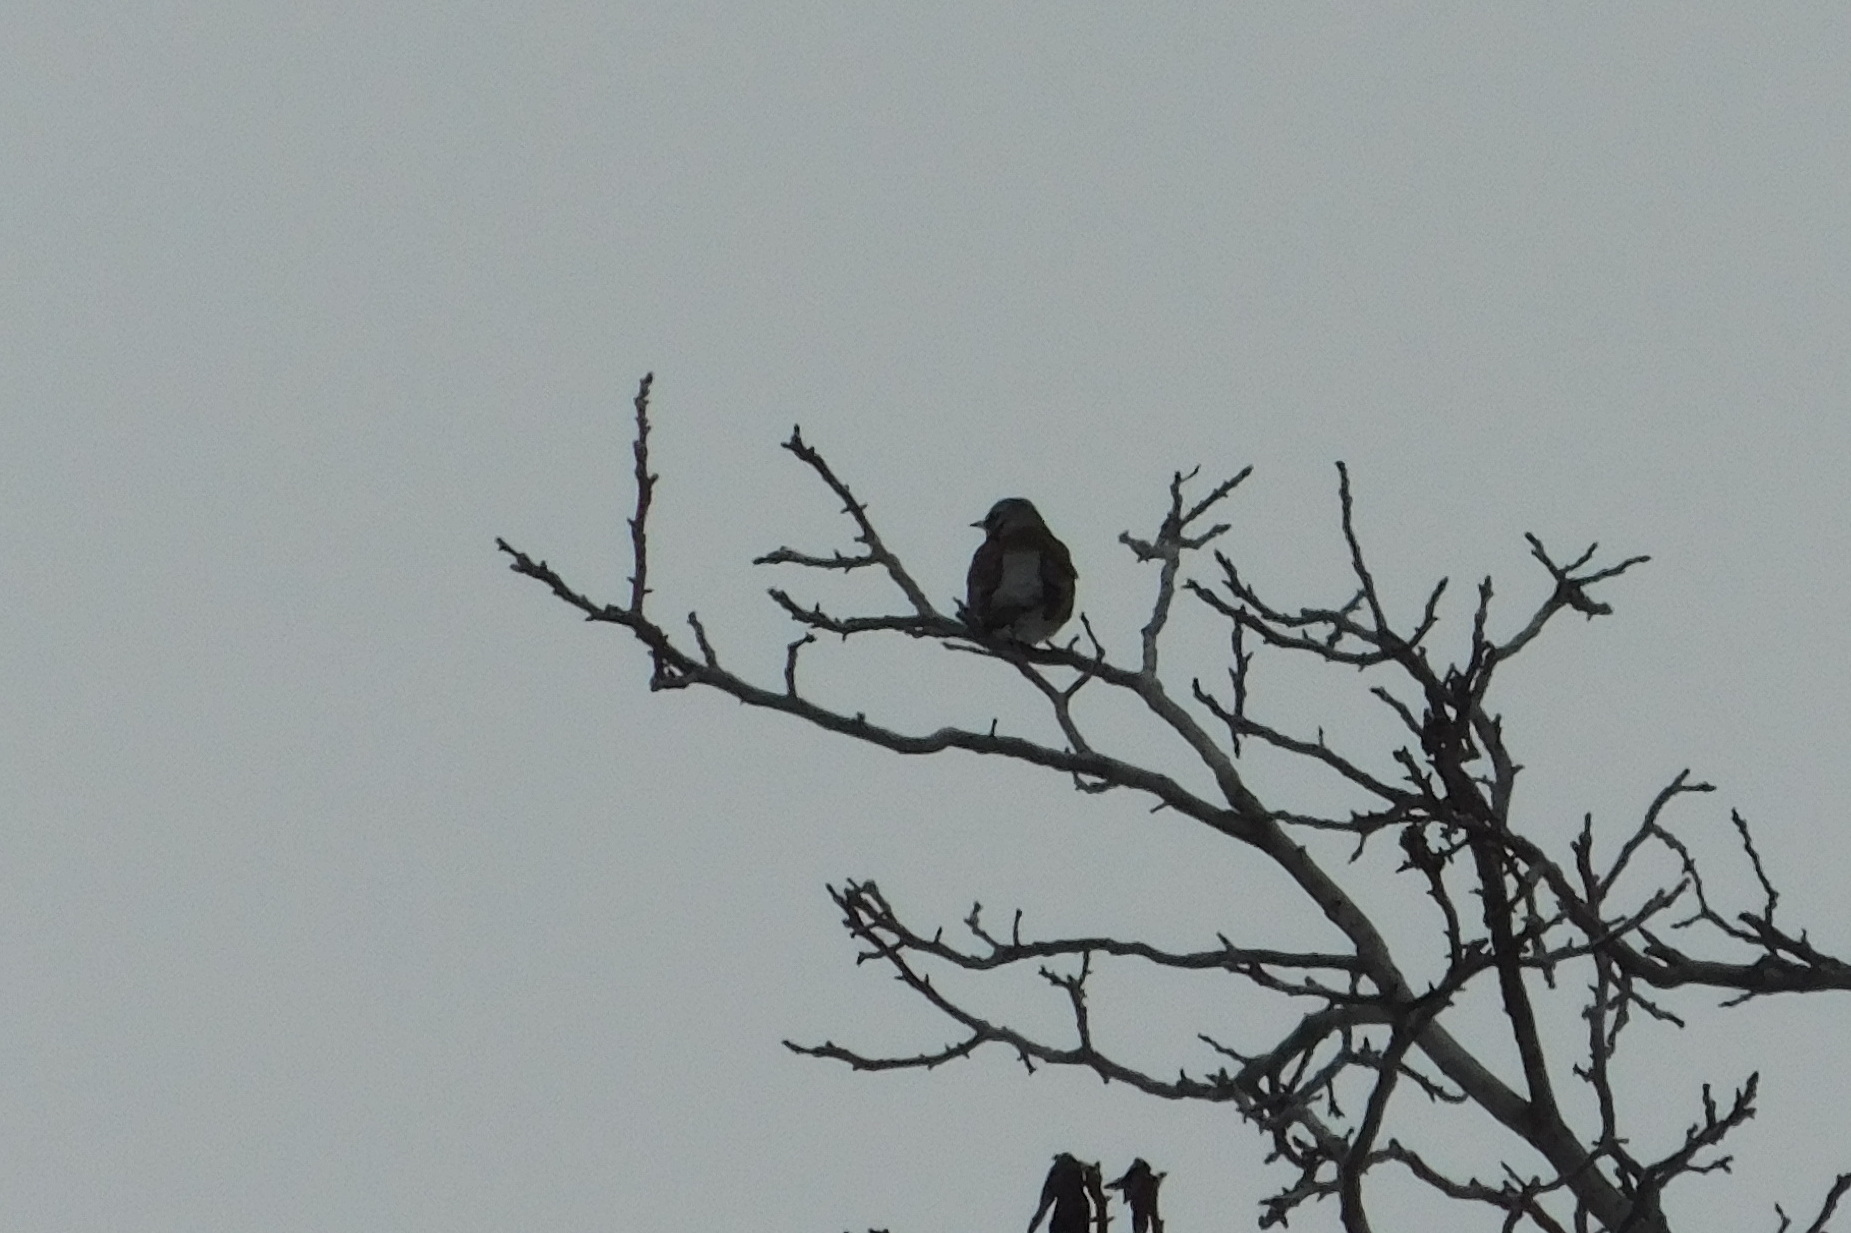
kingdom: Animalia
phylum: Chordata
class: Aves
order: Passeriformes
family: Turdidae
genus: Turdus
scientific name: Turdus pilaris
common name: Fieldfare
